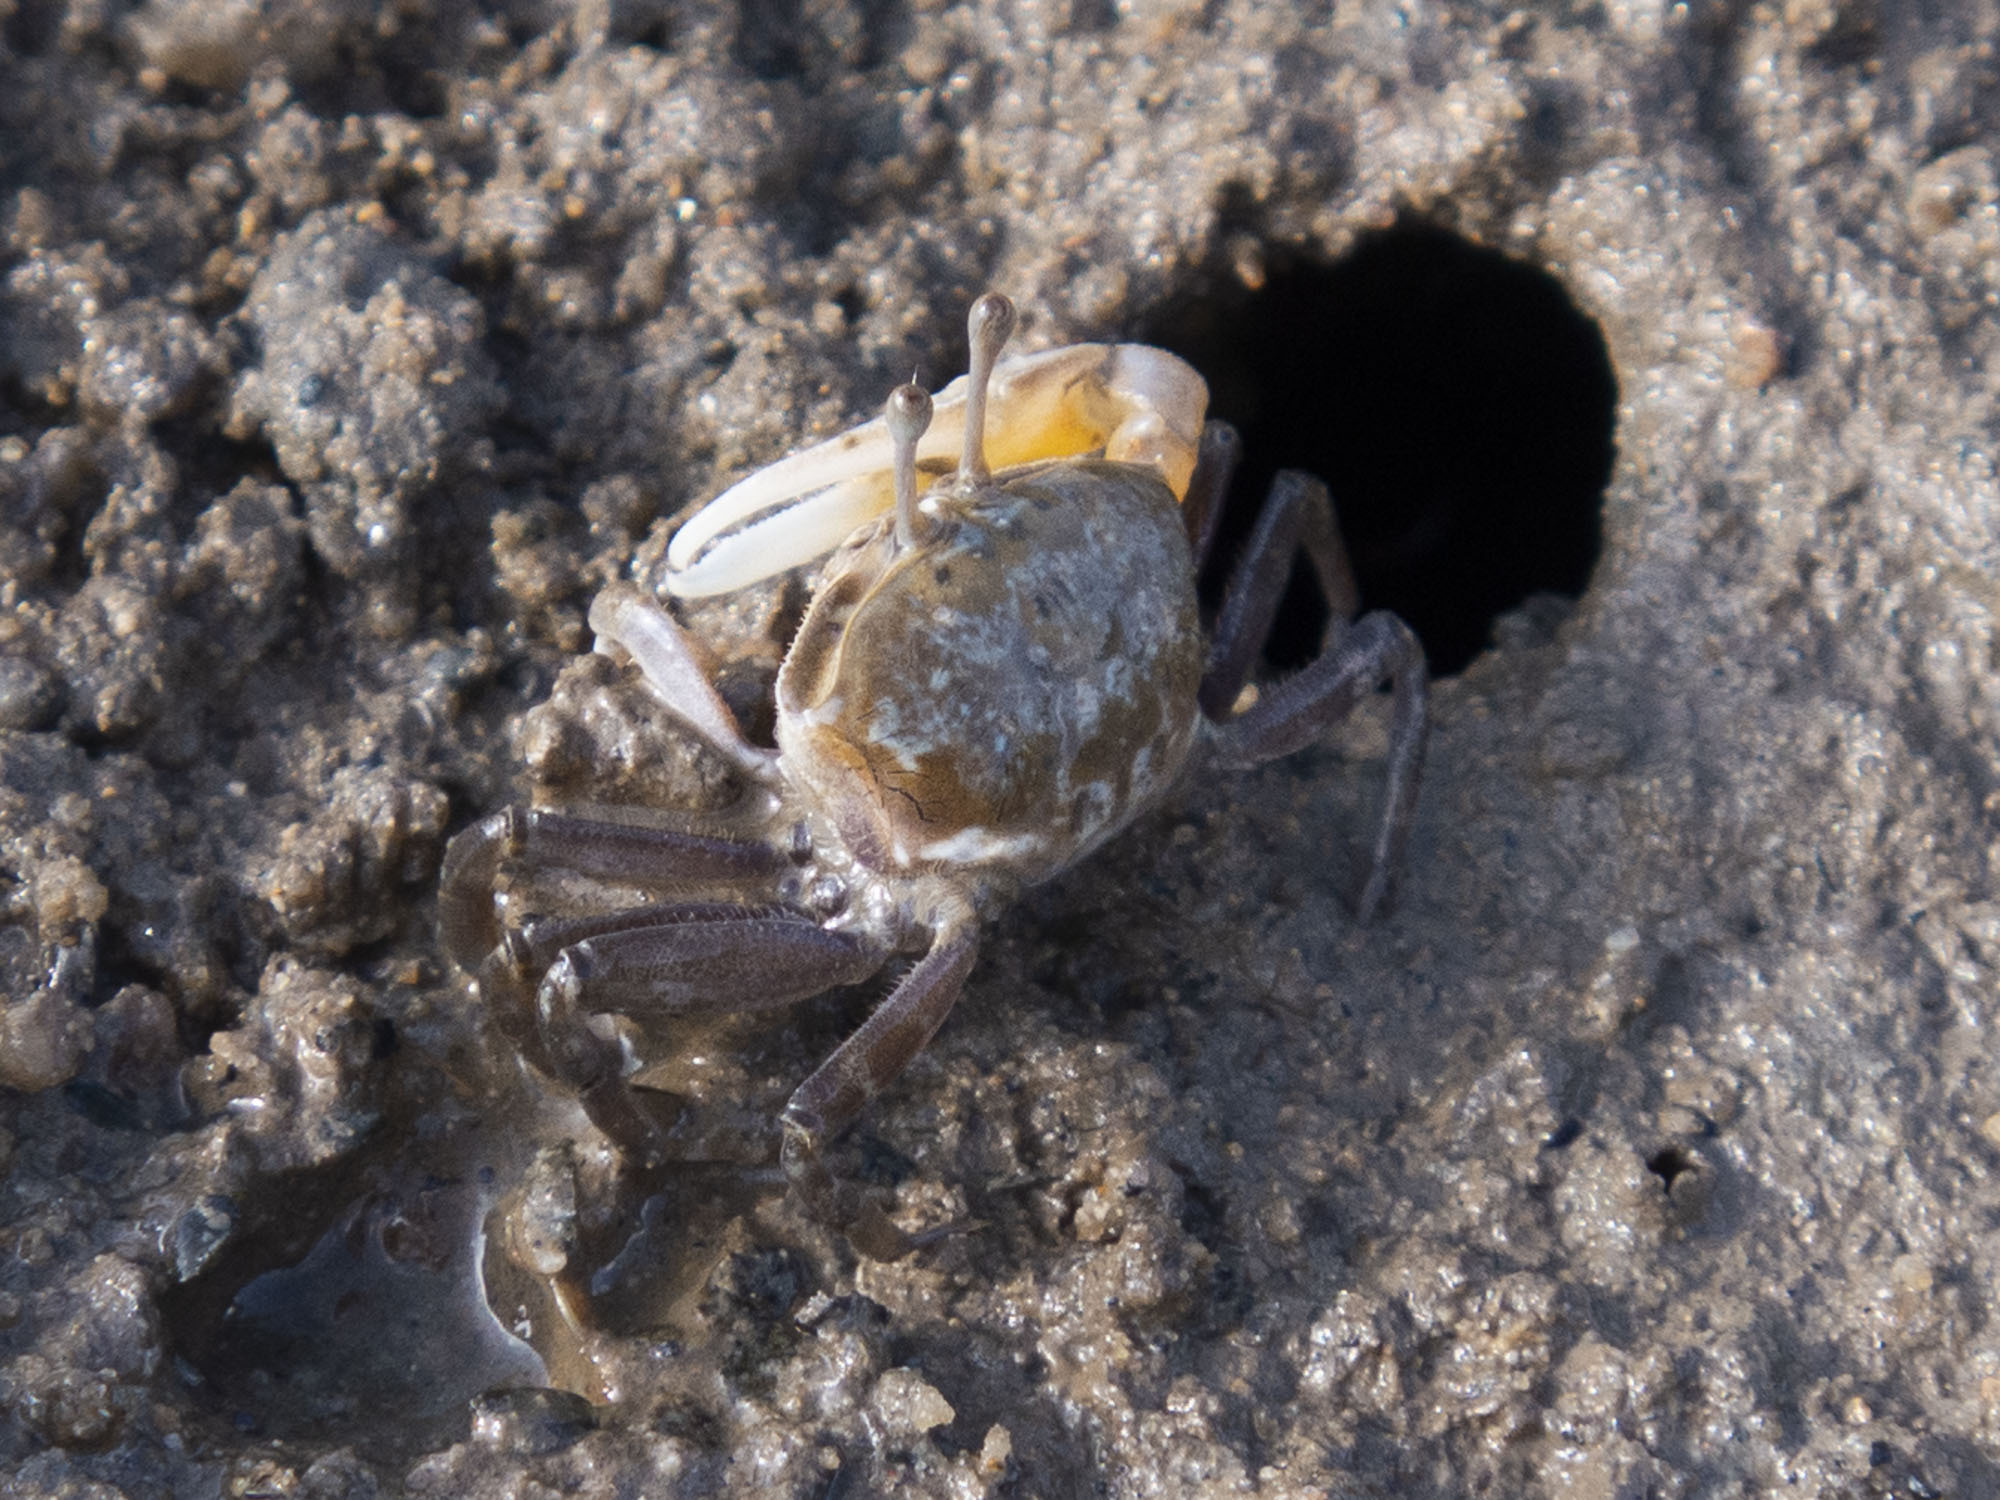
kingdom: Animalia
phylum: Arthropoda
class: Malacostraca
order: Decapoda
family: Ocypodidae
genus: Gelasimus
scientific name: Gelasimus borealis
